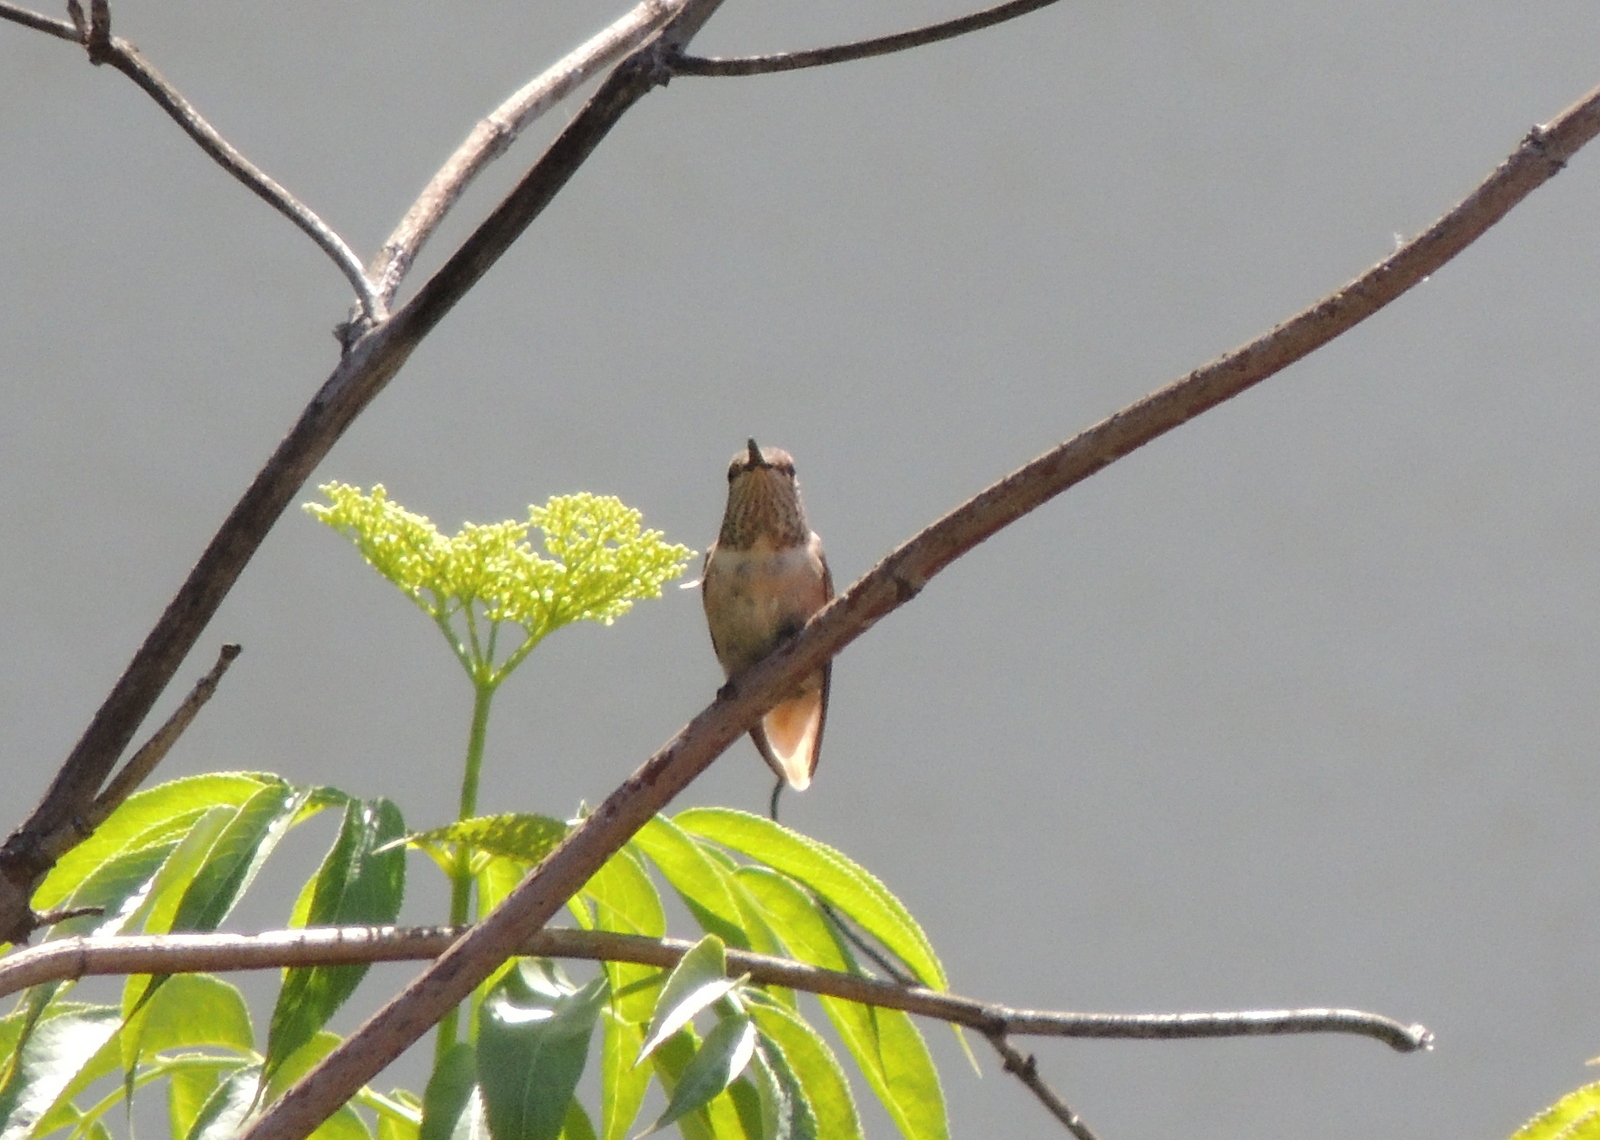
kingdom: Animalia
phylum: Chordata
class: Aves
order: Apodiformes
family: Trochilidae
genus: Selasphorus
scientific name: Selasphorus sasin
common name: Allen's hummingbird
